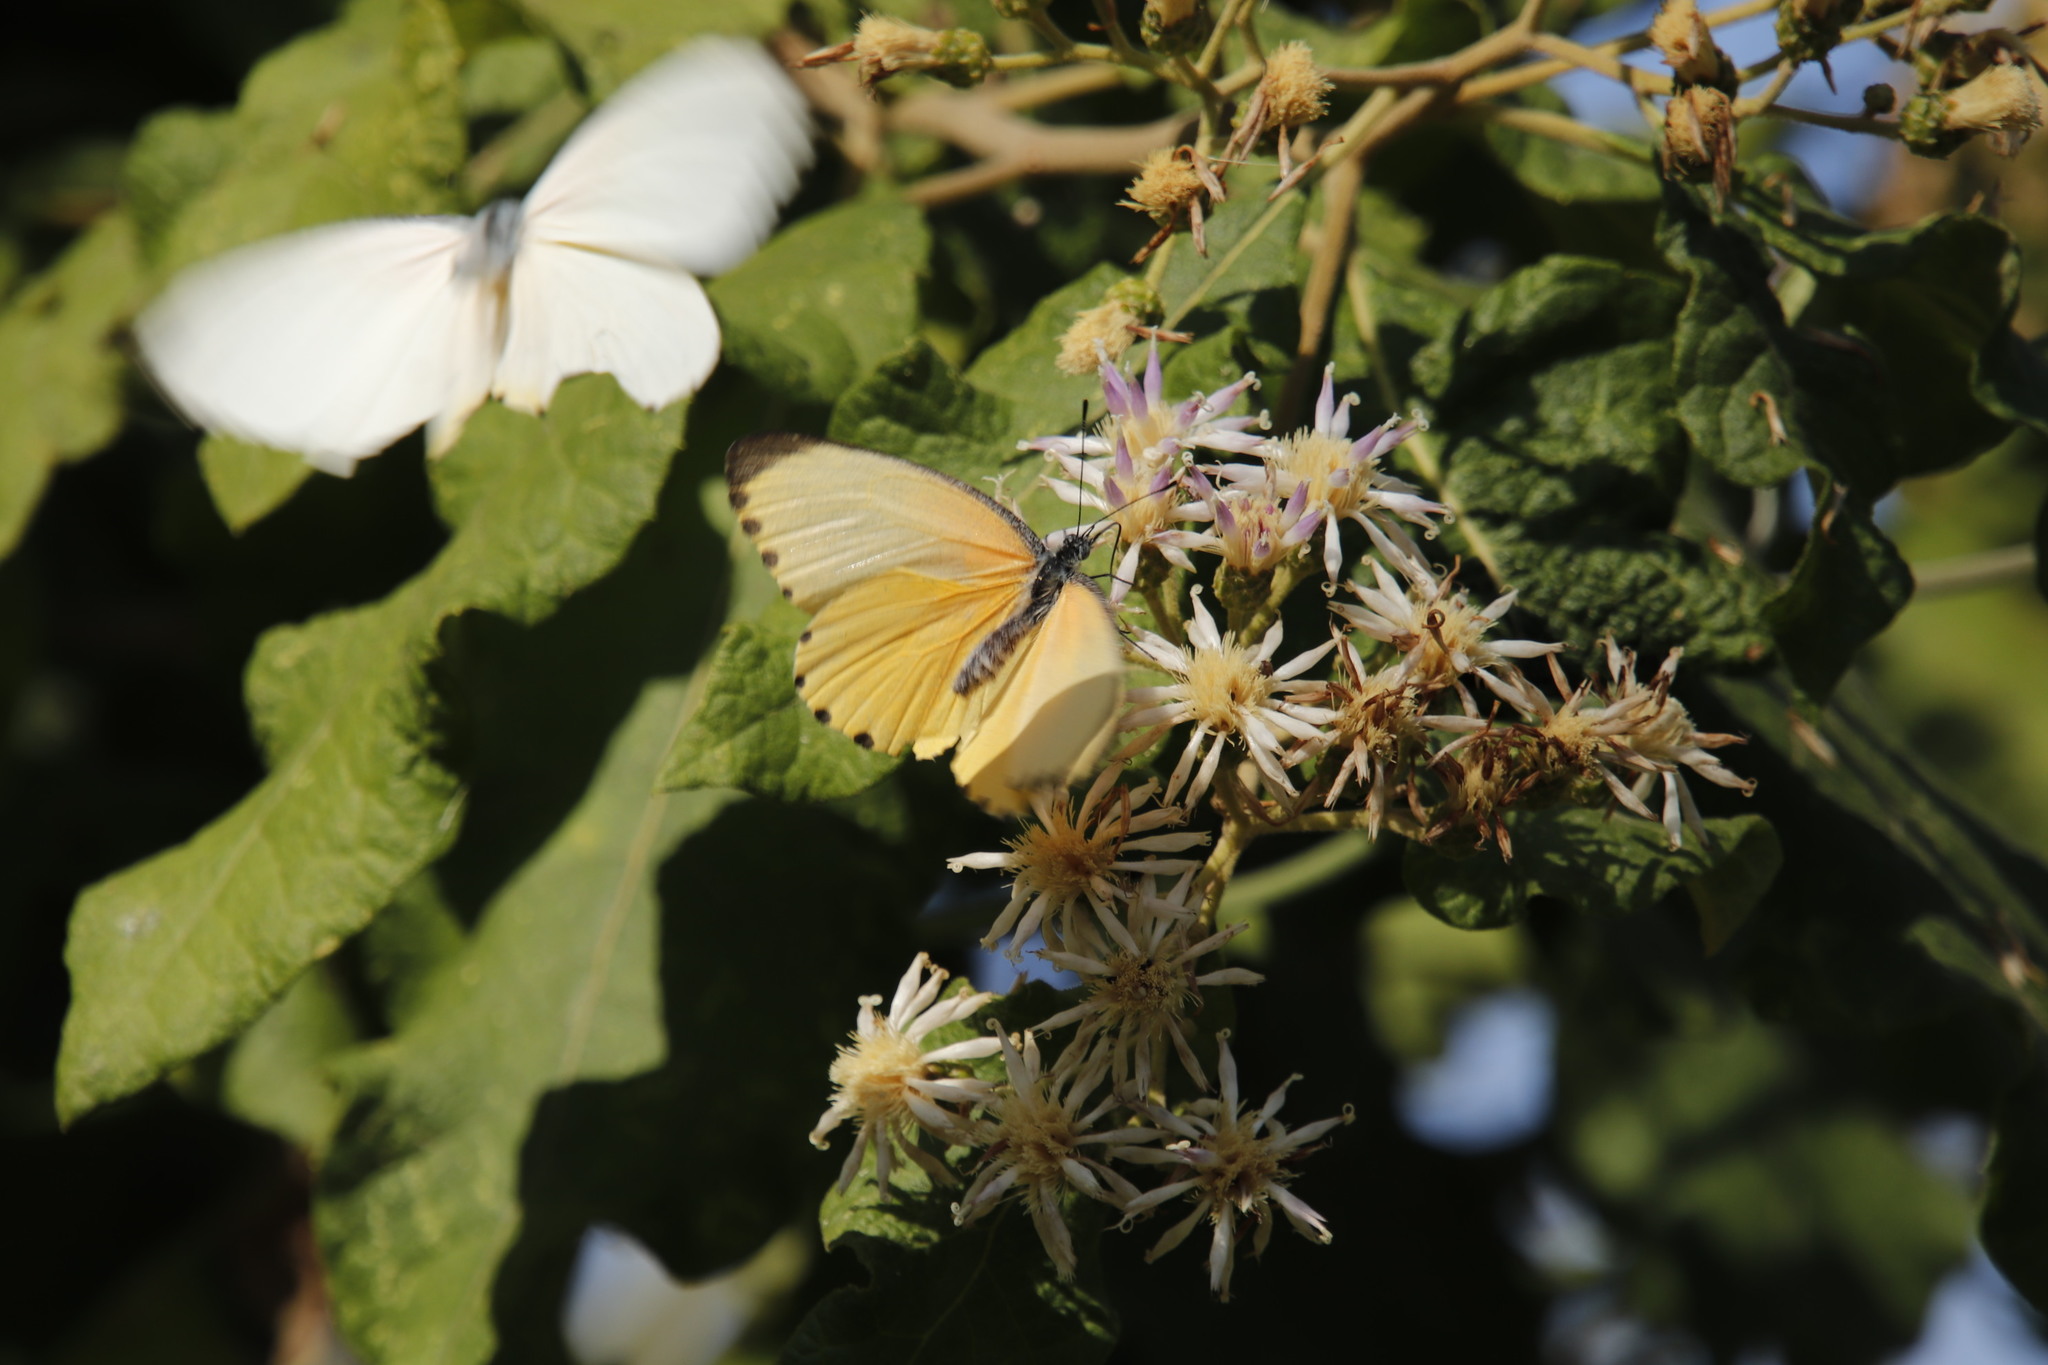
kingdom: Animalia
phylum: Arthropoda
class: Insecta
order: Lepidoptera
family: Pieridae
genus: Mylothris
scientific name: Mylothris agathina
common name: Eastern dotted border
